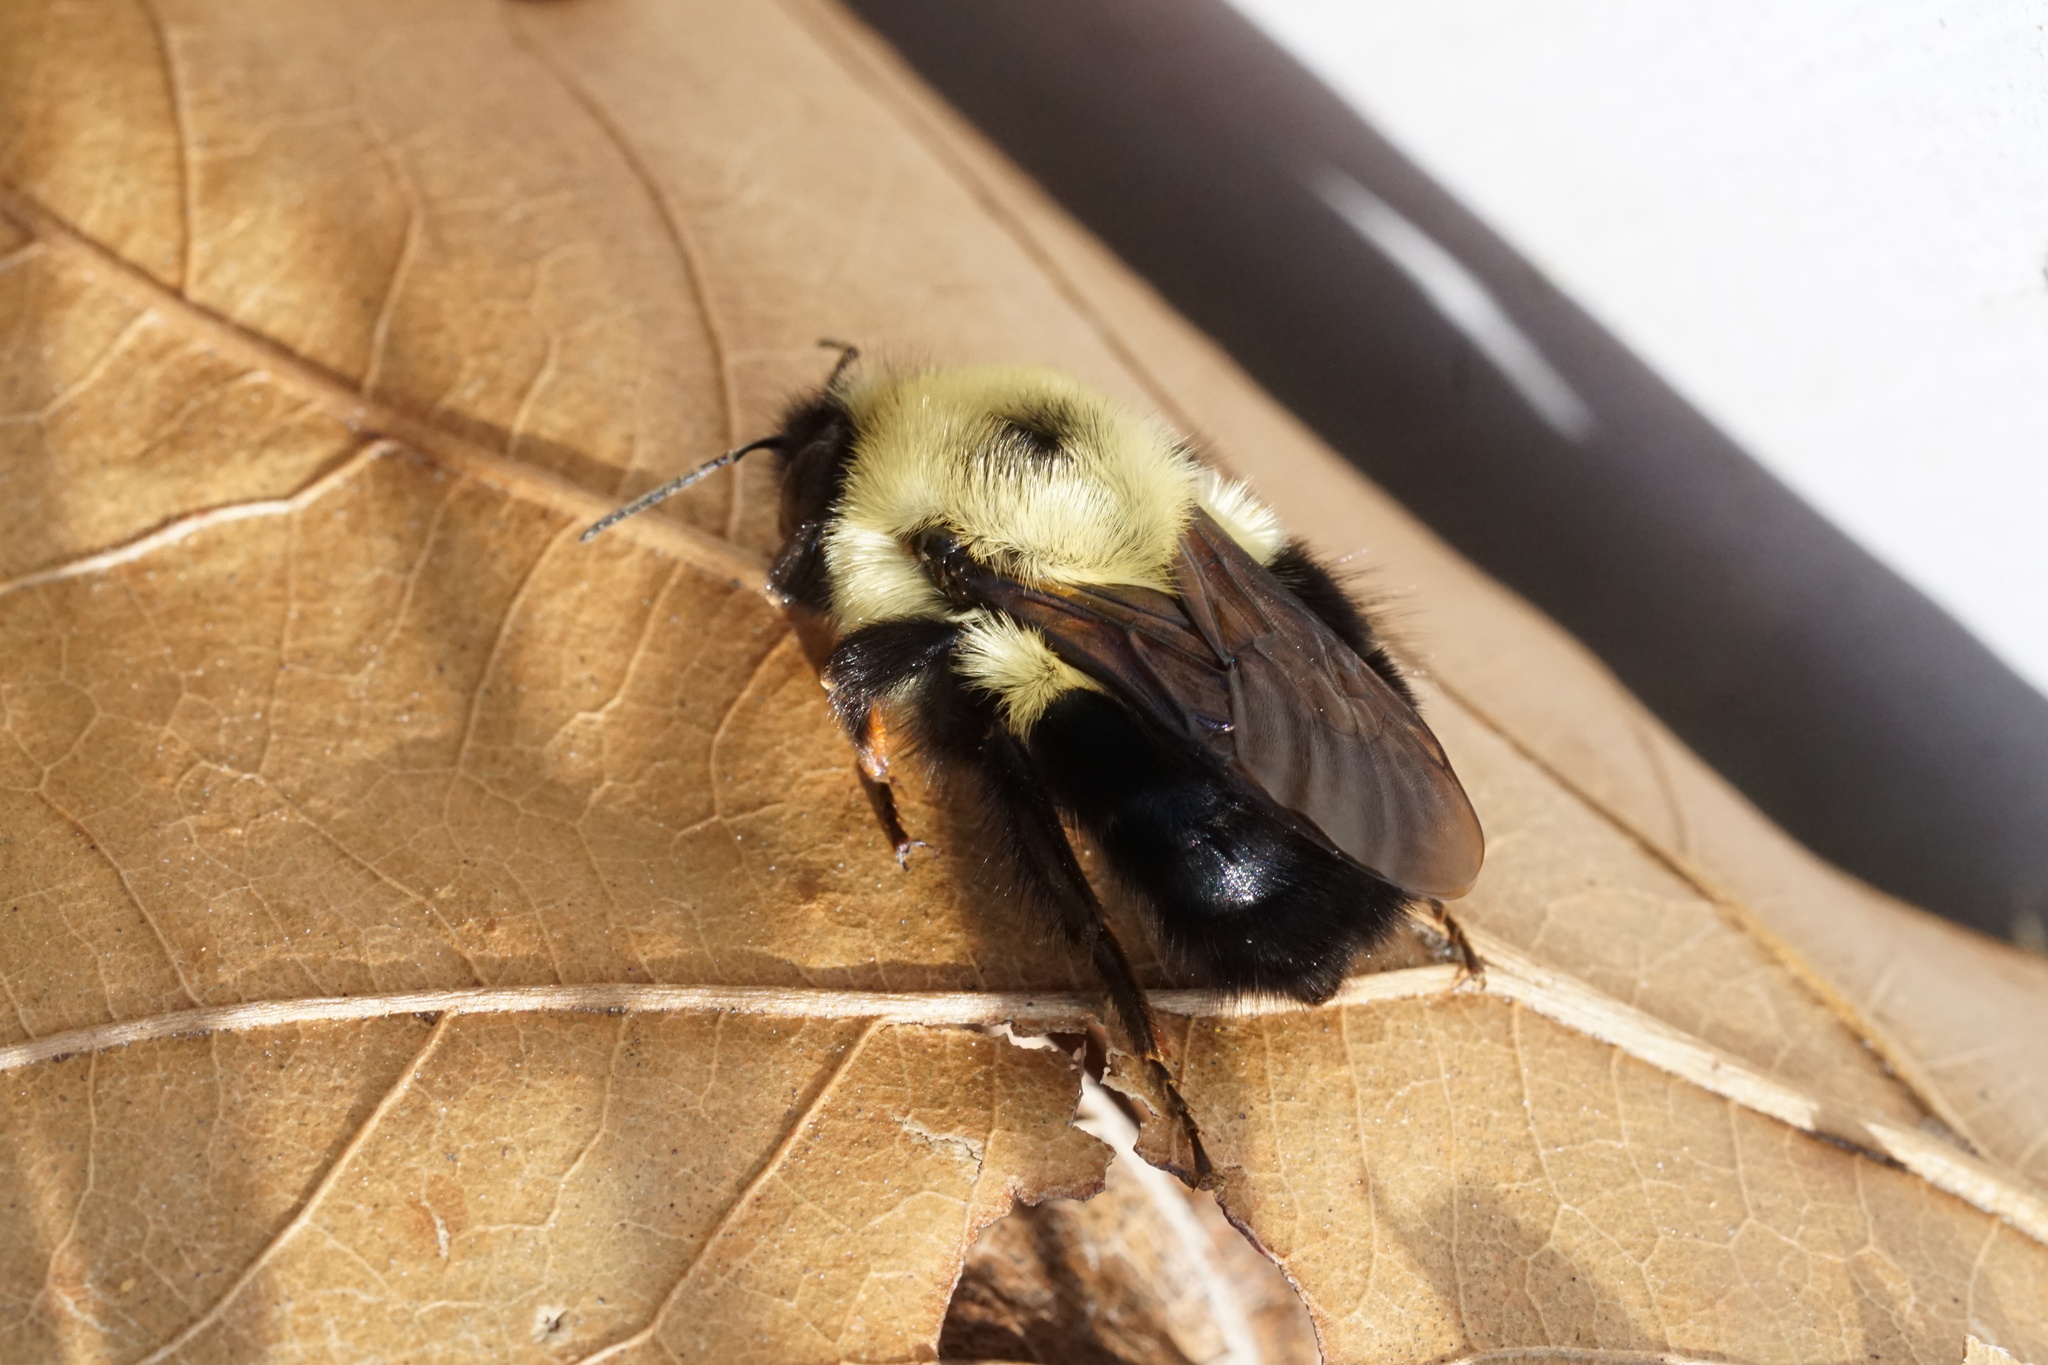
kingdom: Animalia
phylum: Arthropoda
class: Insecta
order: Hymenoptera
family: Apidae
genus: Bombus
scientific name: Bombus bimaculatus
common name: Two-spotted bumble bee
